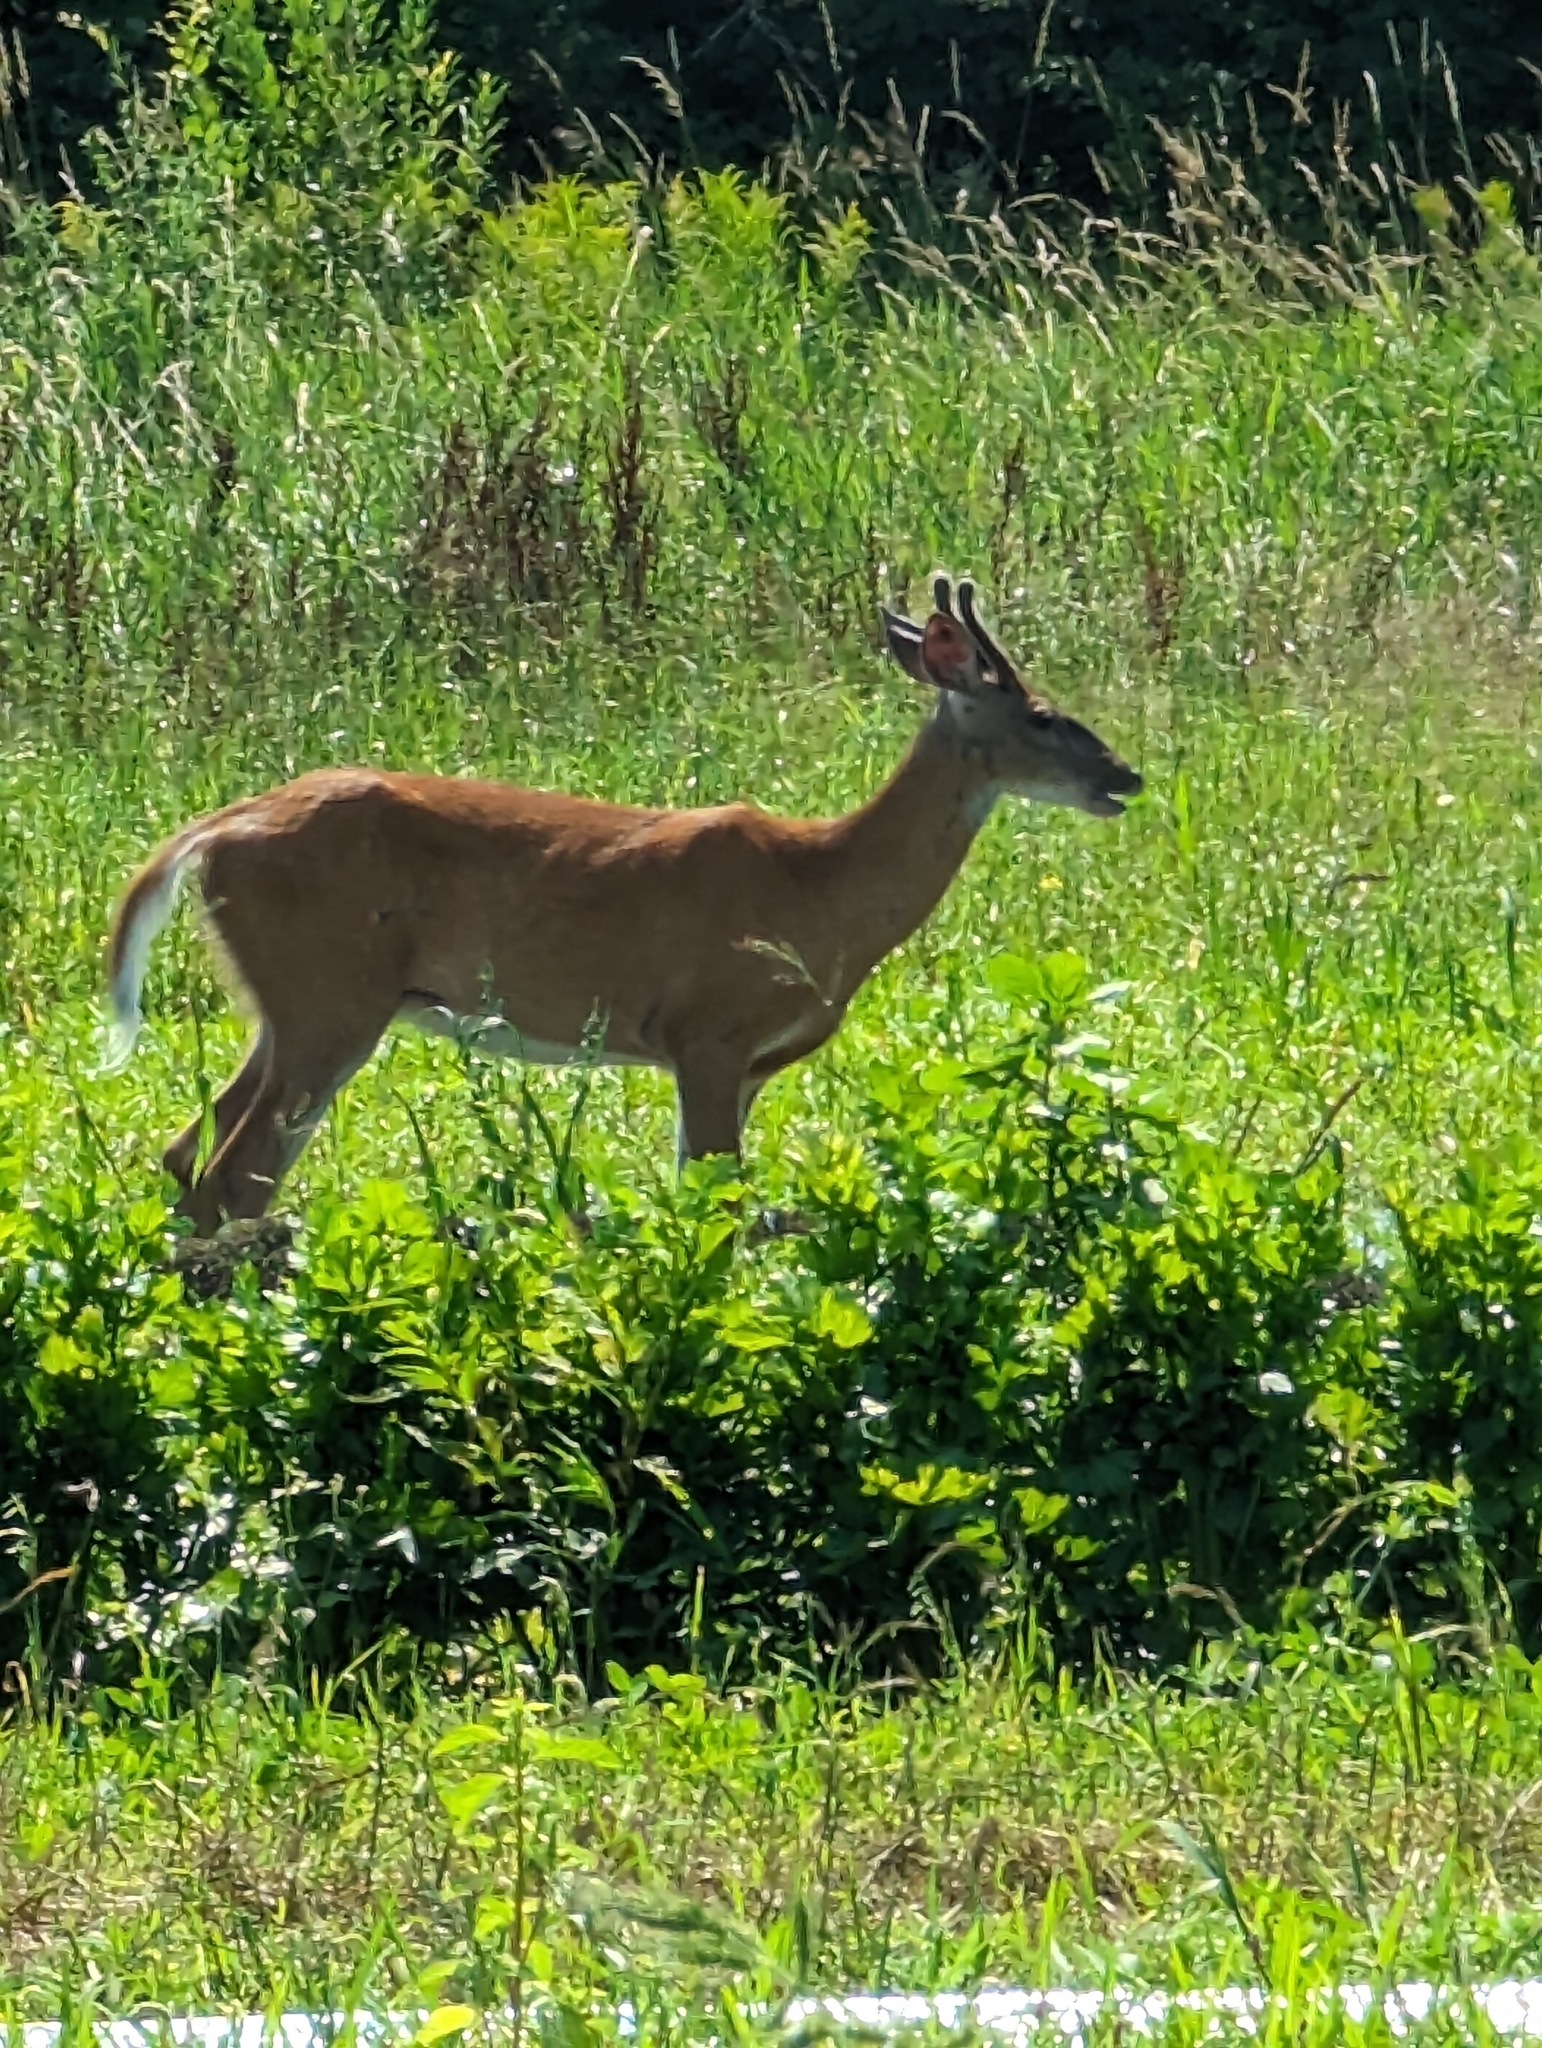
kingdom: Animalia
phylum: Chordata
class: Mammalia
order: Artiodactyla
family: Cervidae
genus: Odocoileus
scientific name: Odocoileus virginianus
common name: White-tailed deer
